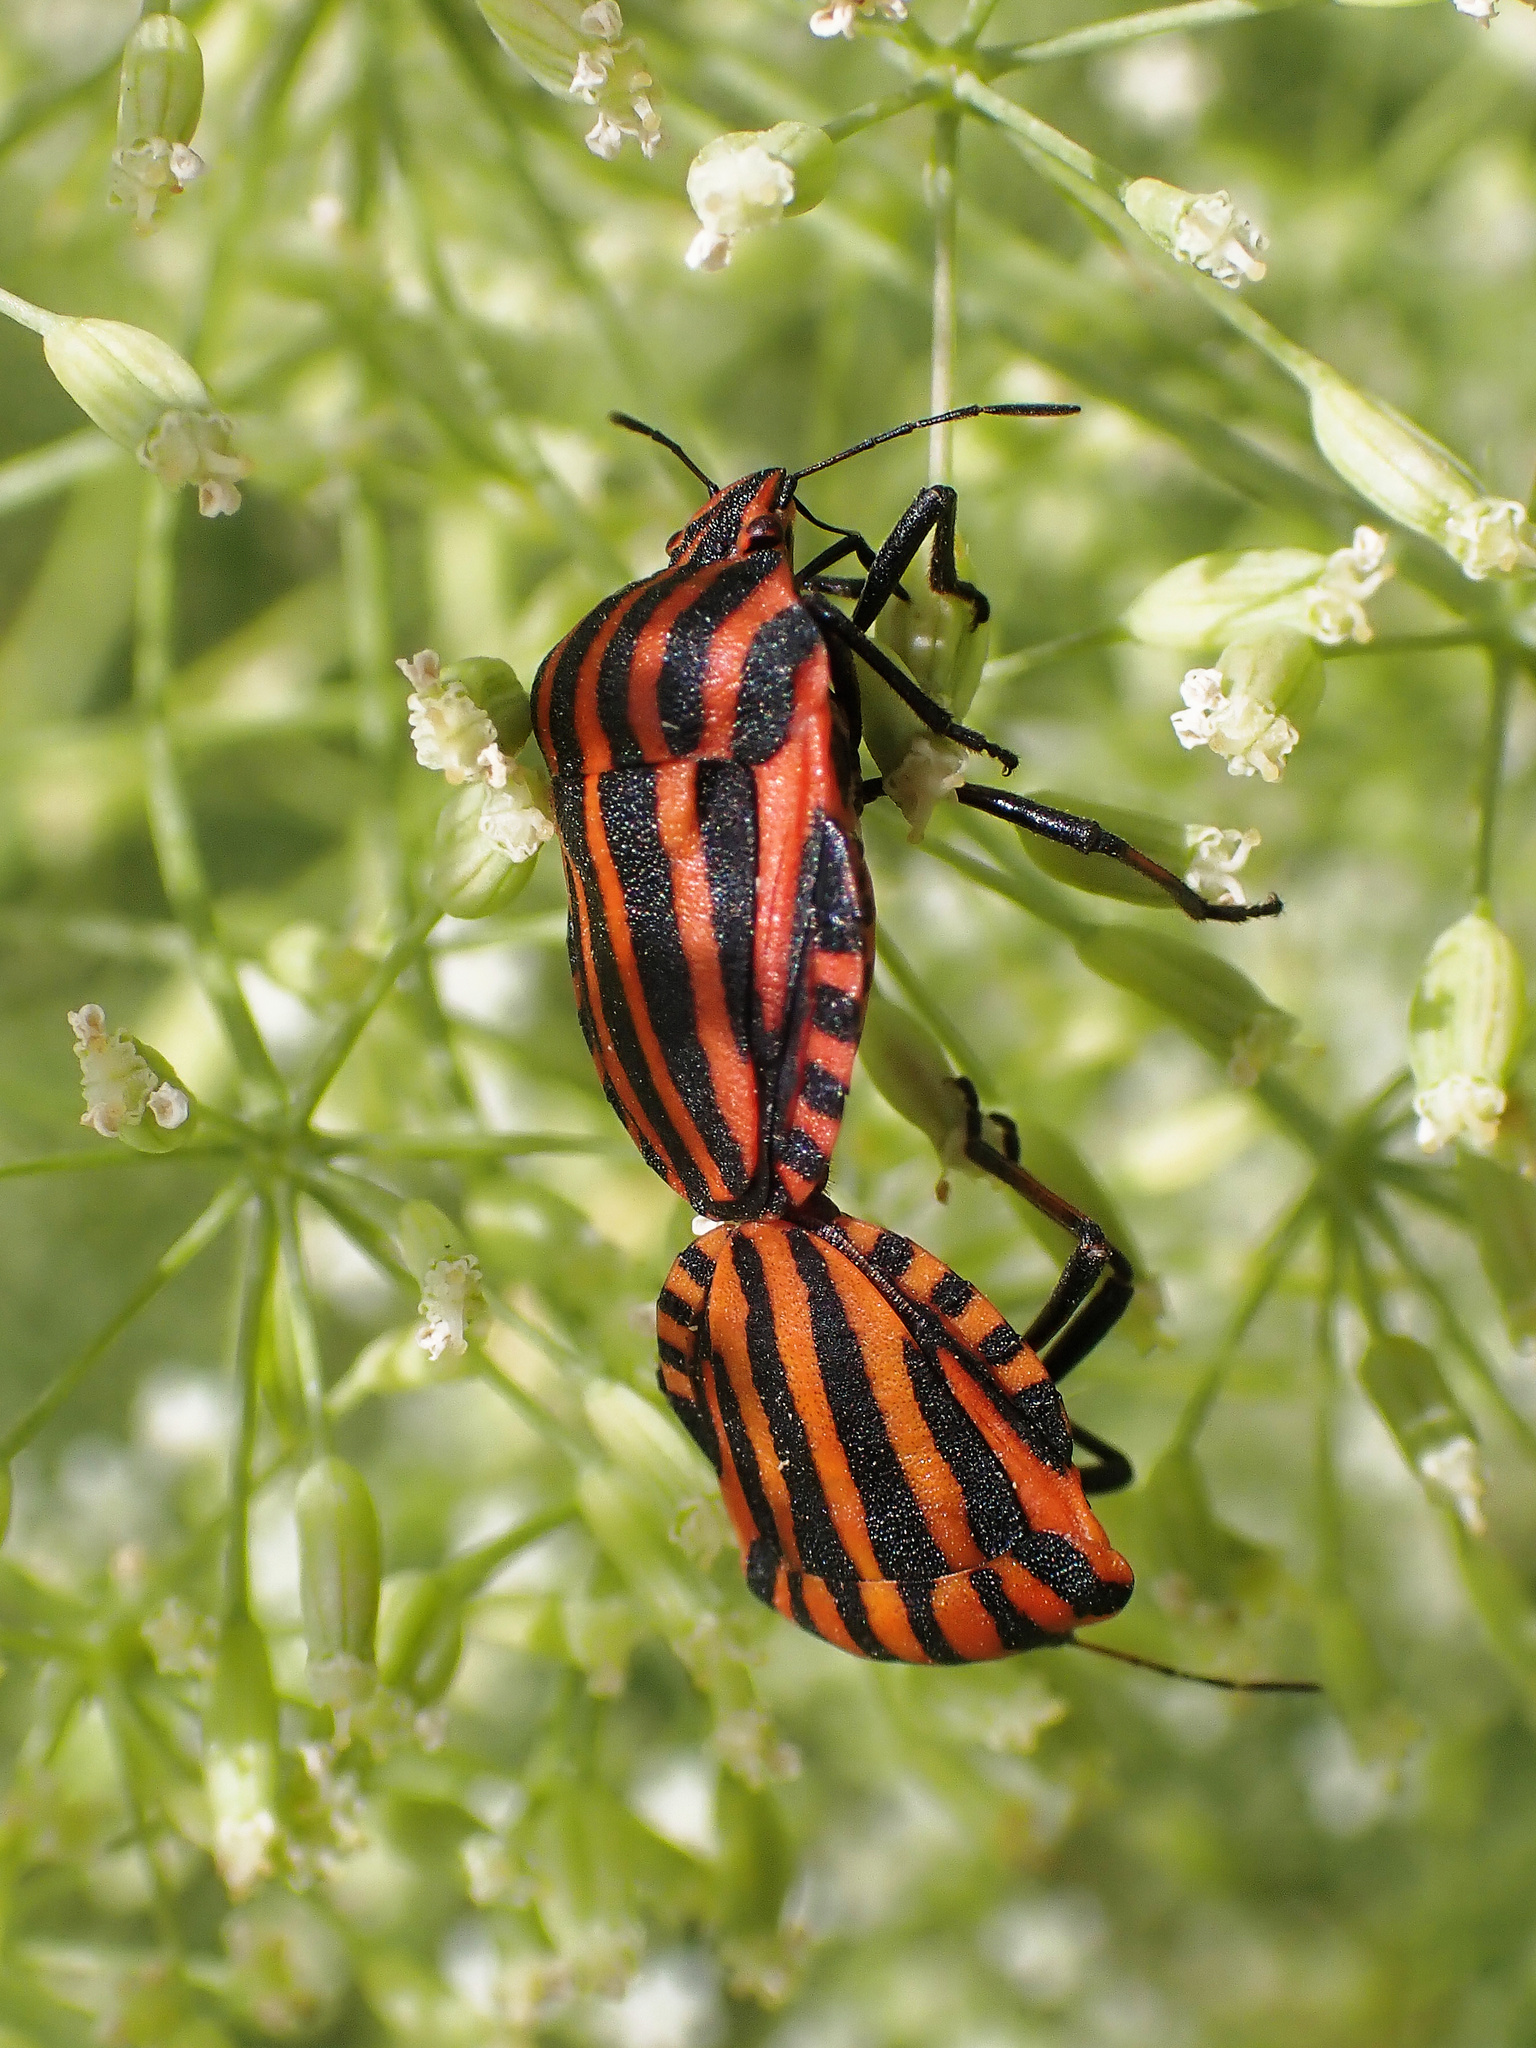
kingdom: Animalia
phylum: Arthropoda
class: Insecta
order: Hemiptera
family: Pentatomidae
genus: Graphosoma
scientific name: Graphosoma italicum
